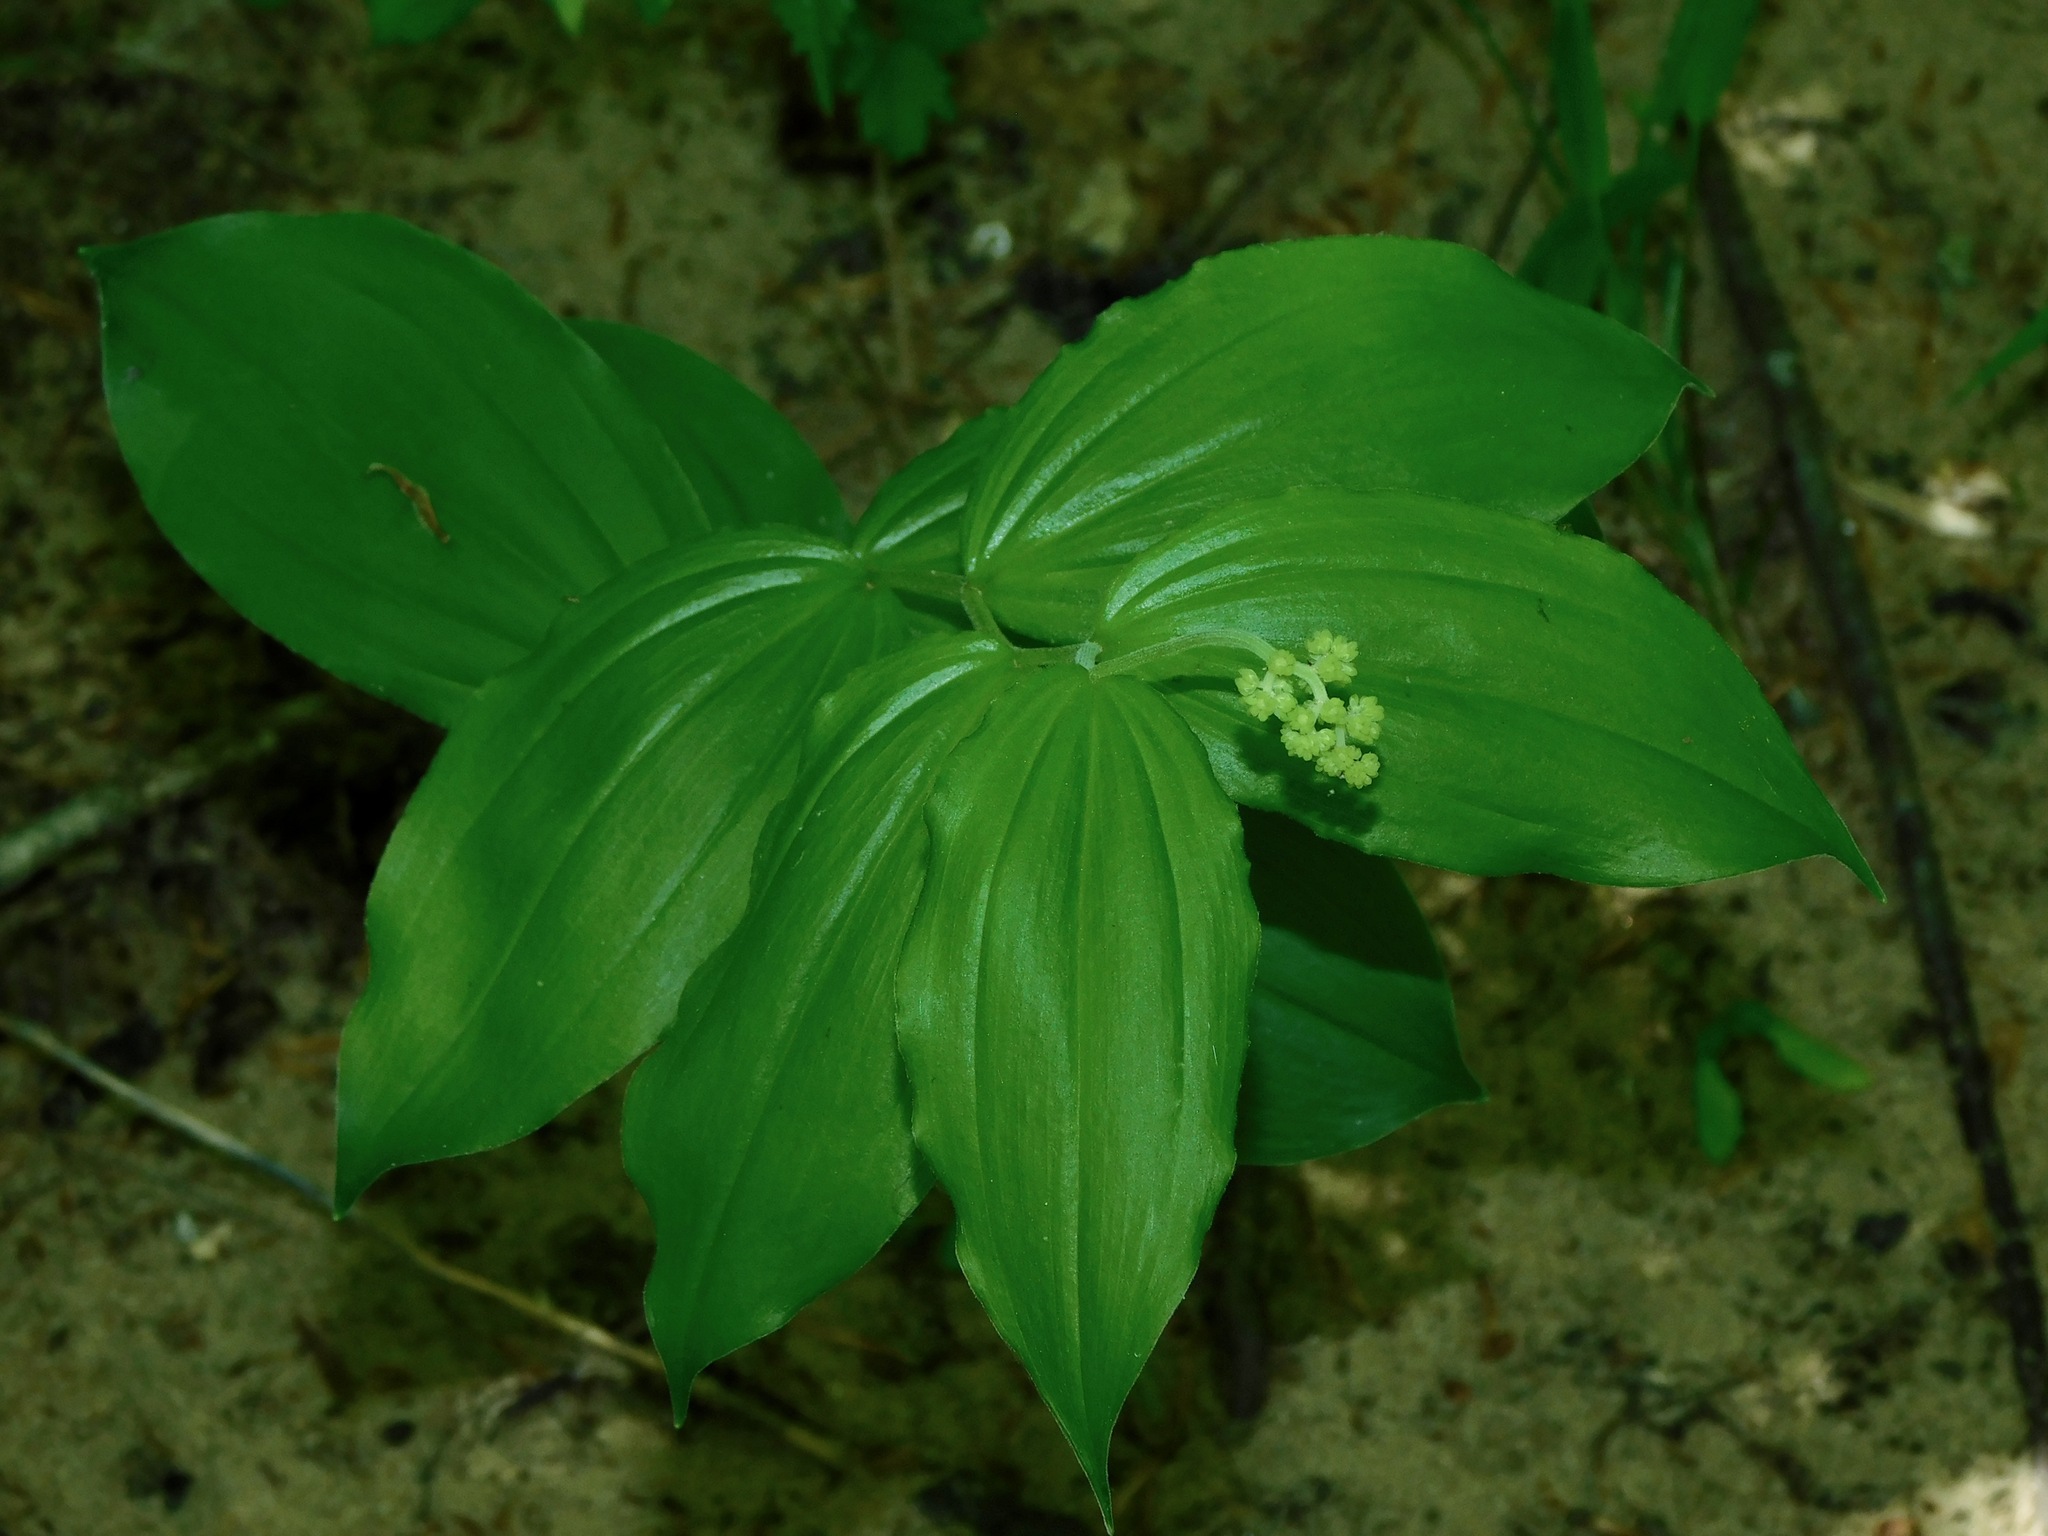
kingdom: Plantae
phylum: Tracheophyta
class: Liliopsida
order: Asparagales
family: Asparagaceae
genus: Maianthemum
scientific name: Maianthemum racemosum
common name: False spikenard
